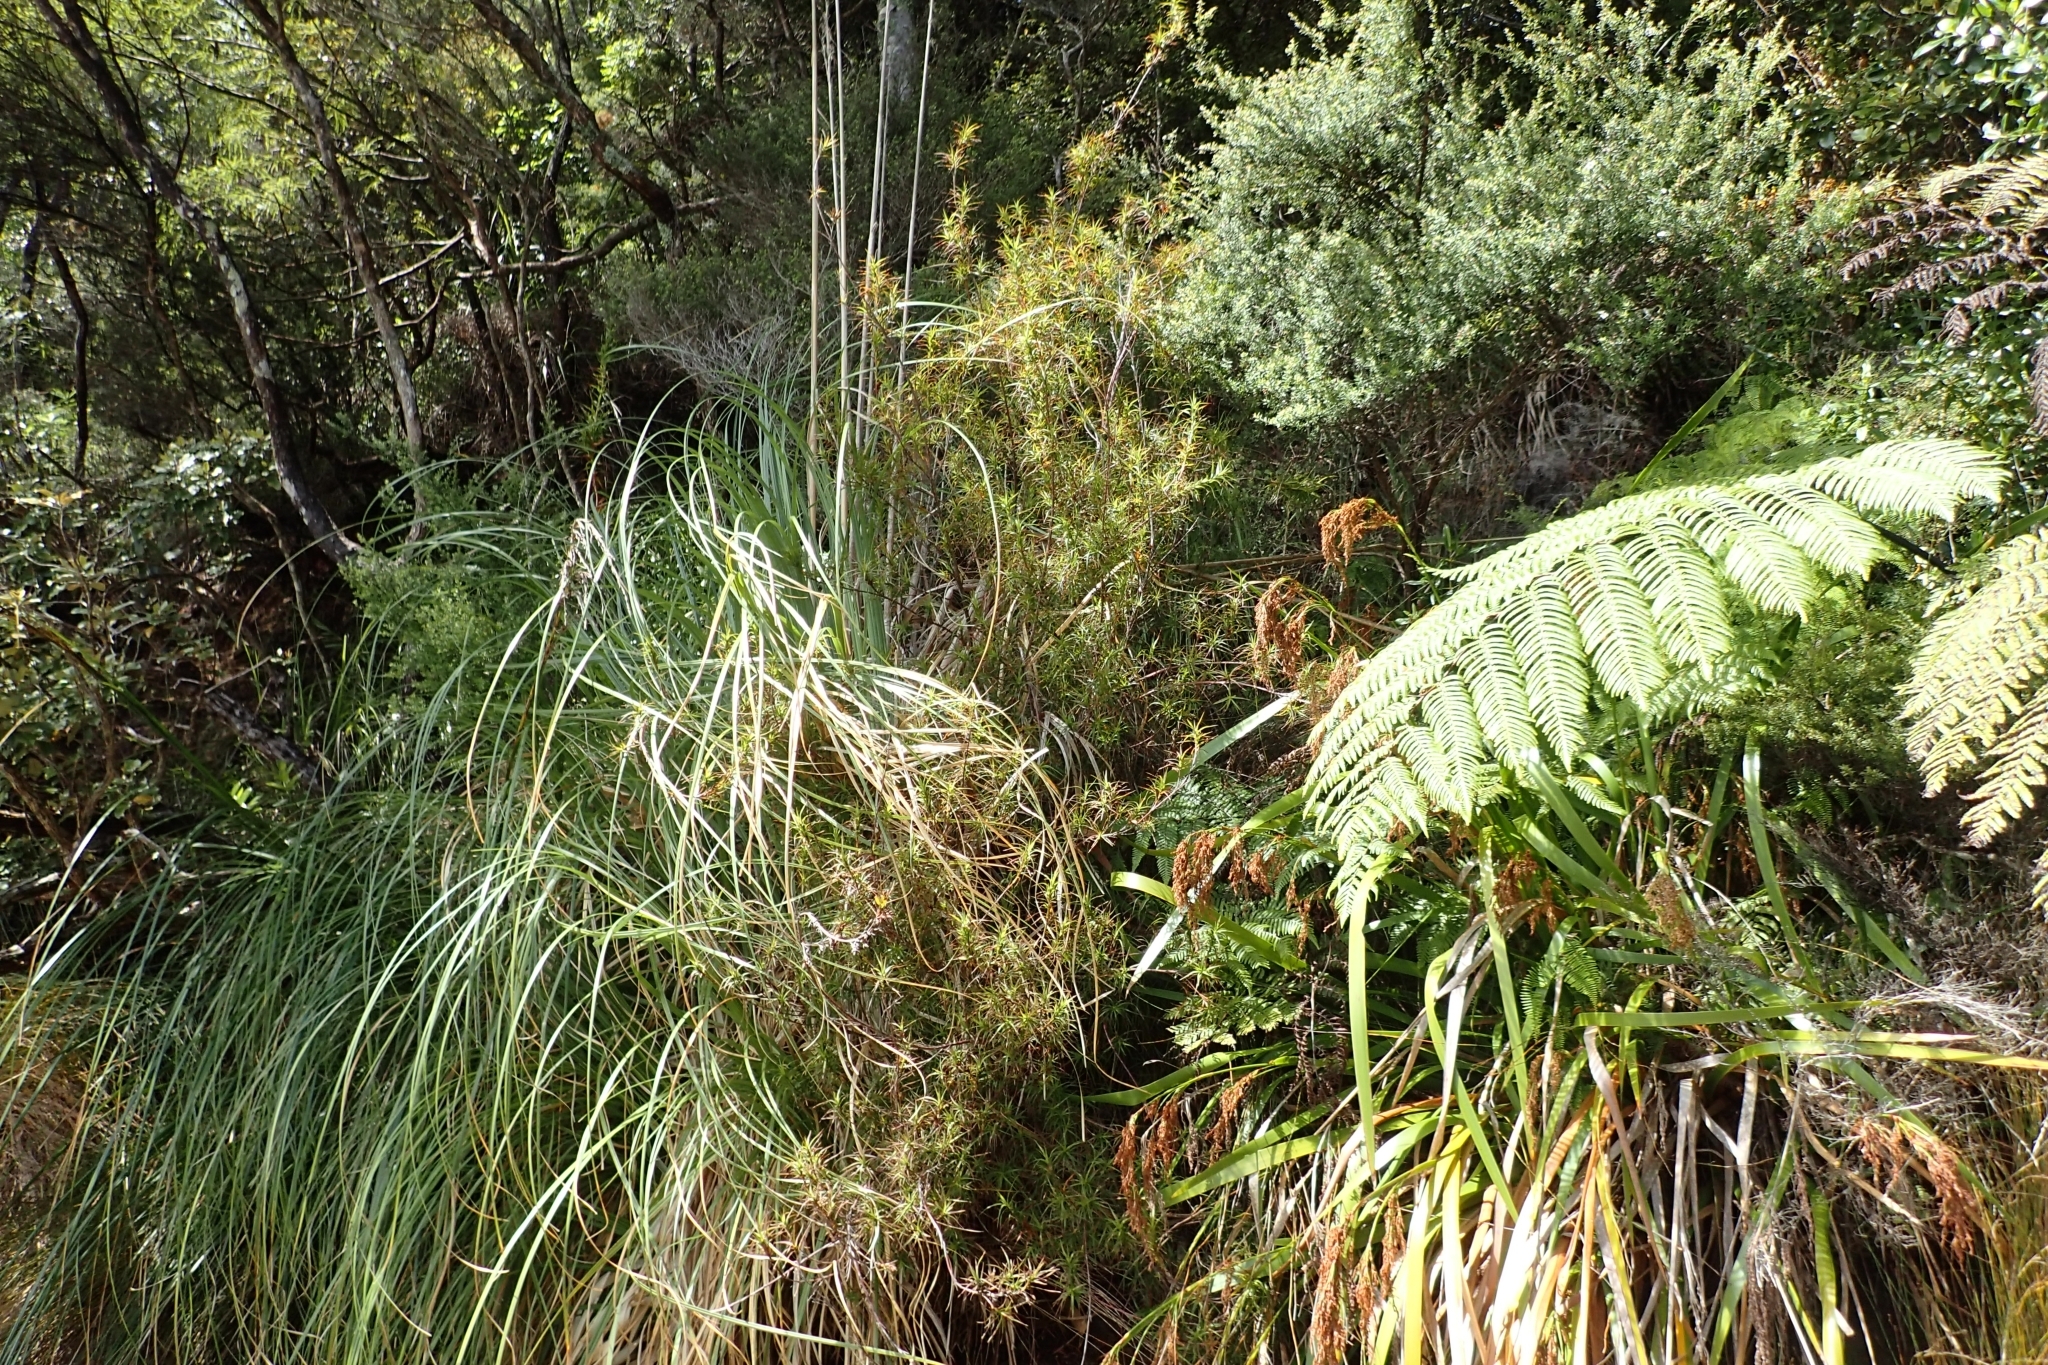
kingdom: Plantae
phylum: Tracheophyta
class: Magnoliopsida
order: Ericales
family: Ericaceae
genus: Dracophyllum
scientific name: Dracophyllum sinclairii
